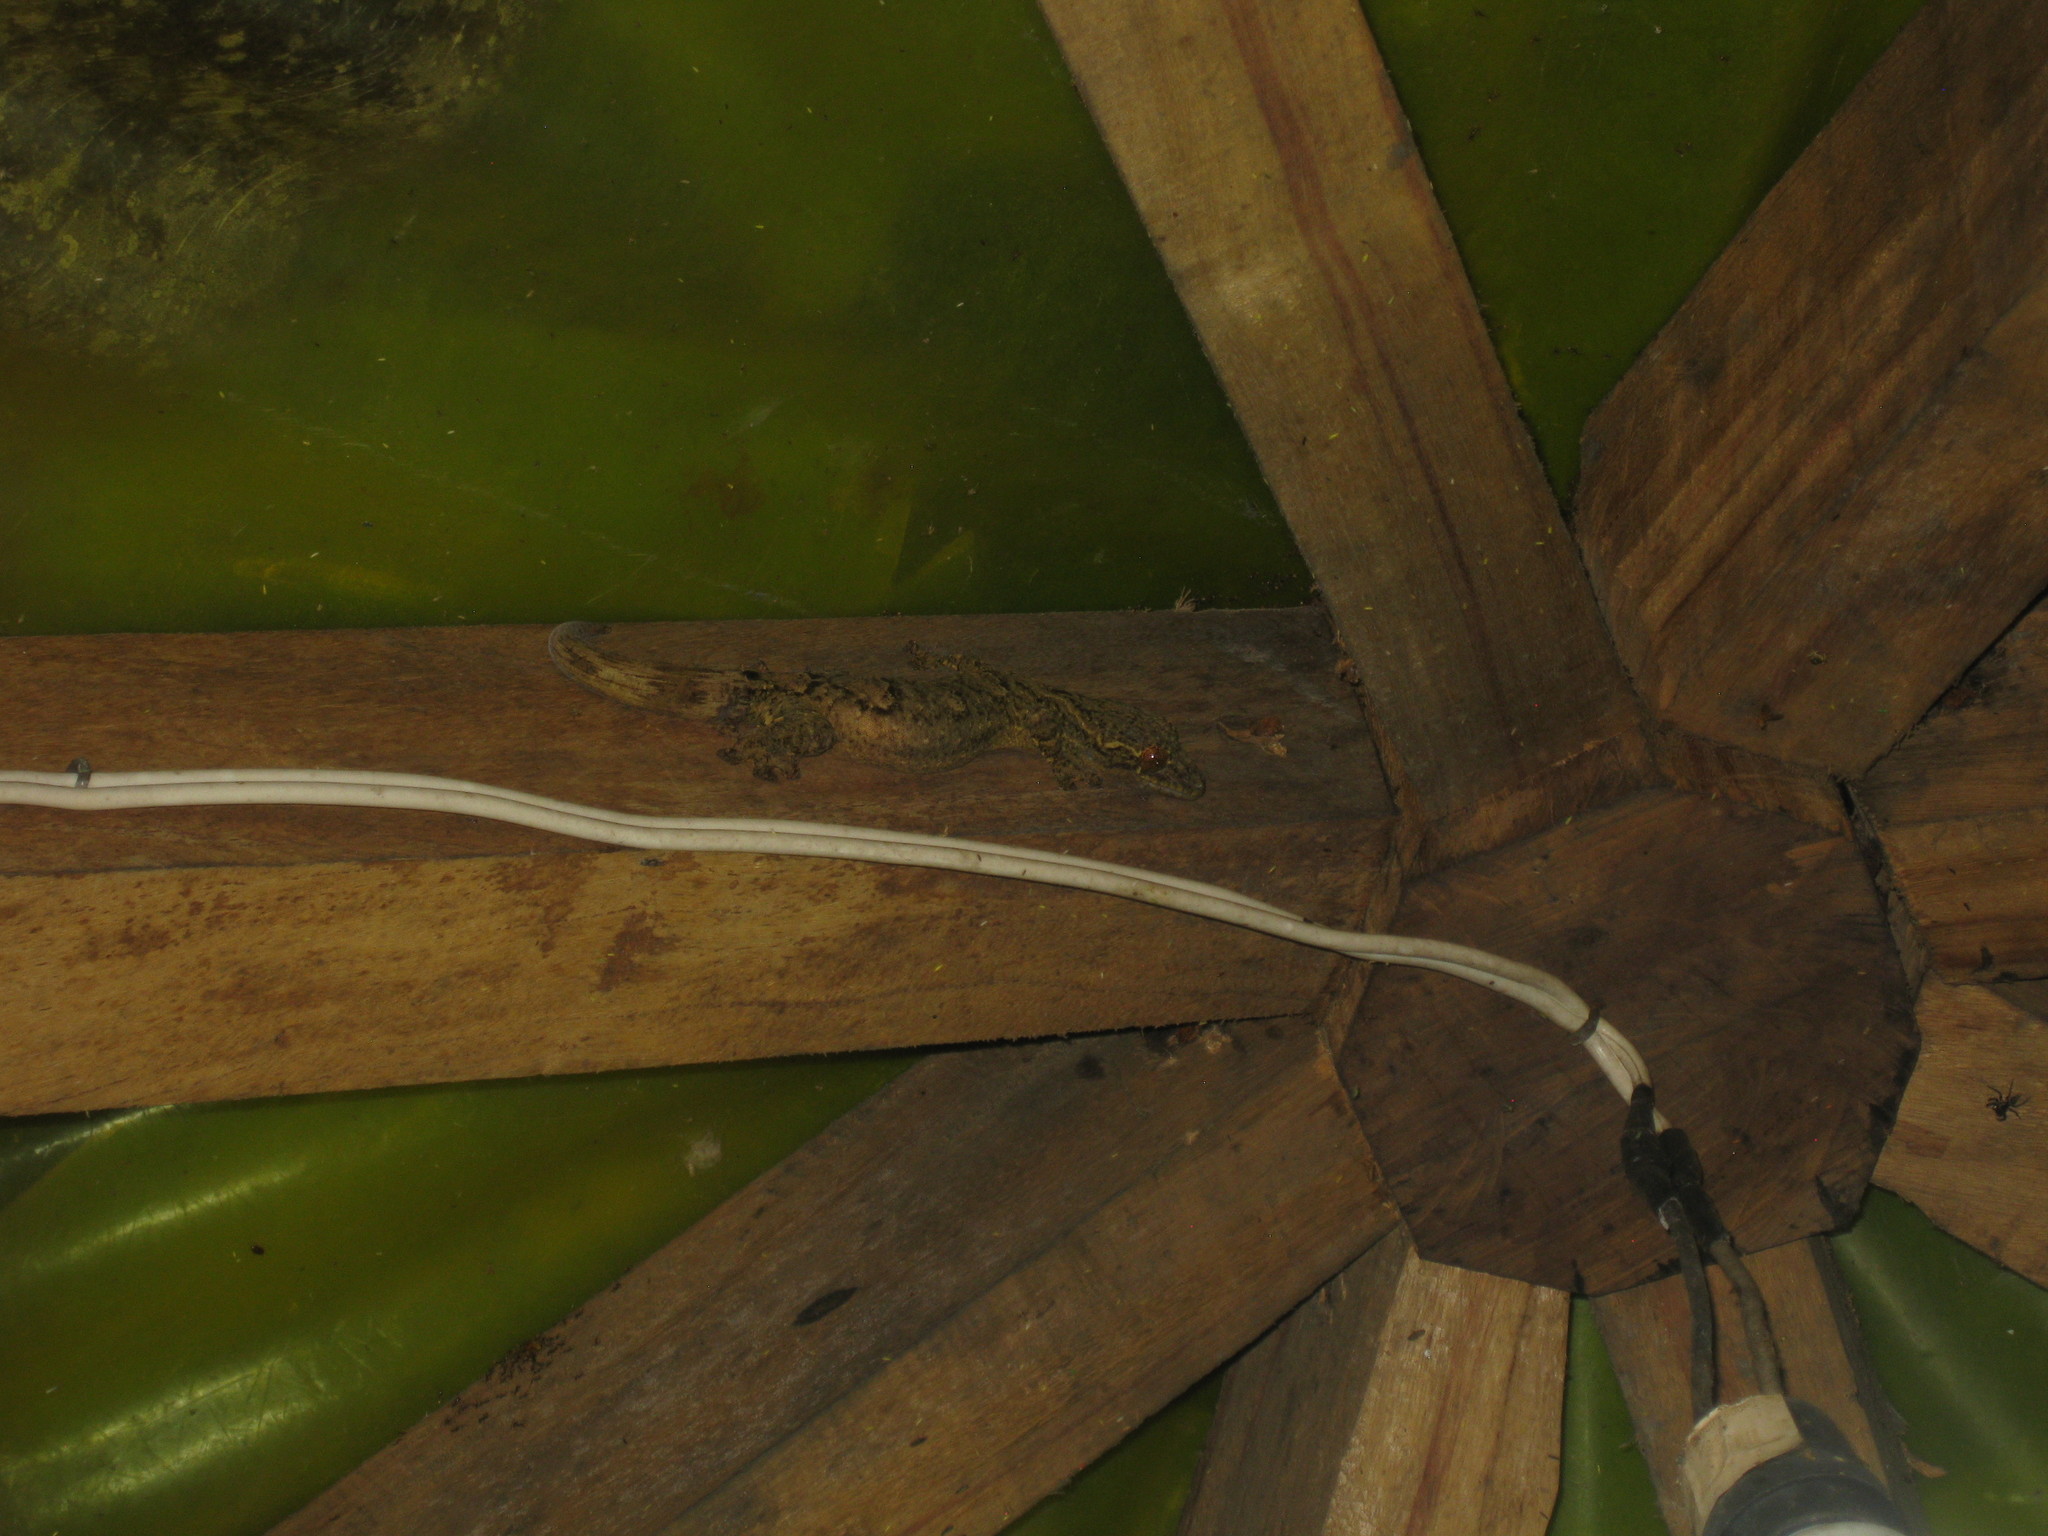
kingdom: Animalia
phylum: Chordata
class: Squamata
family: Phyllodactylidae
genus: Thecadactylus
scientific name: Thecadactylus solimoensis
